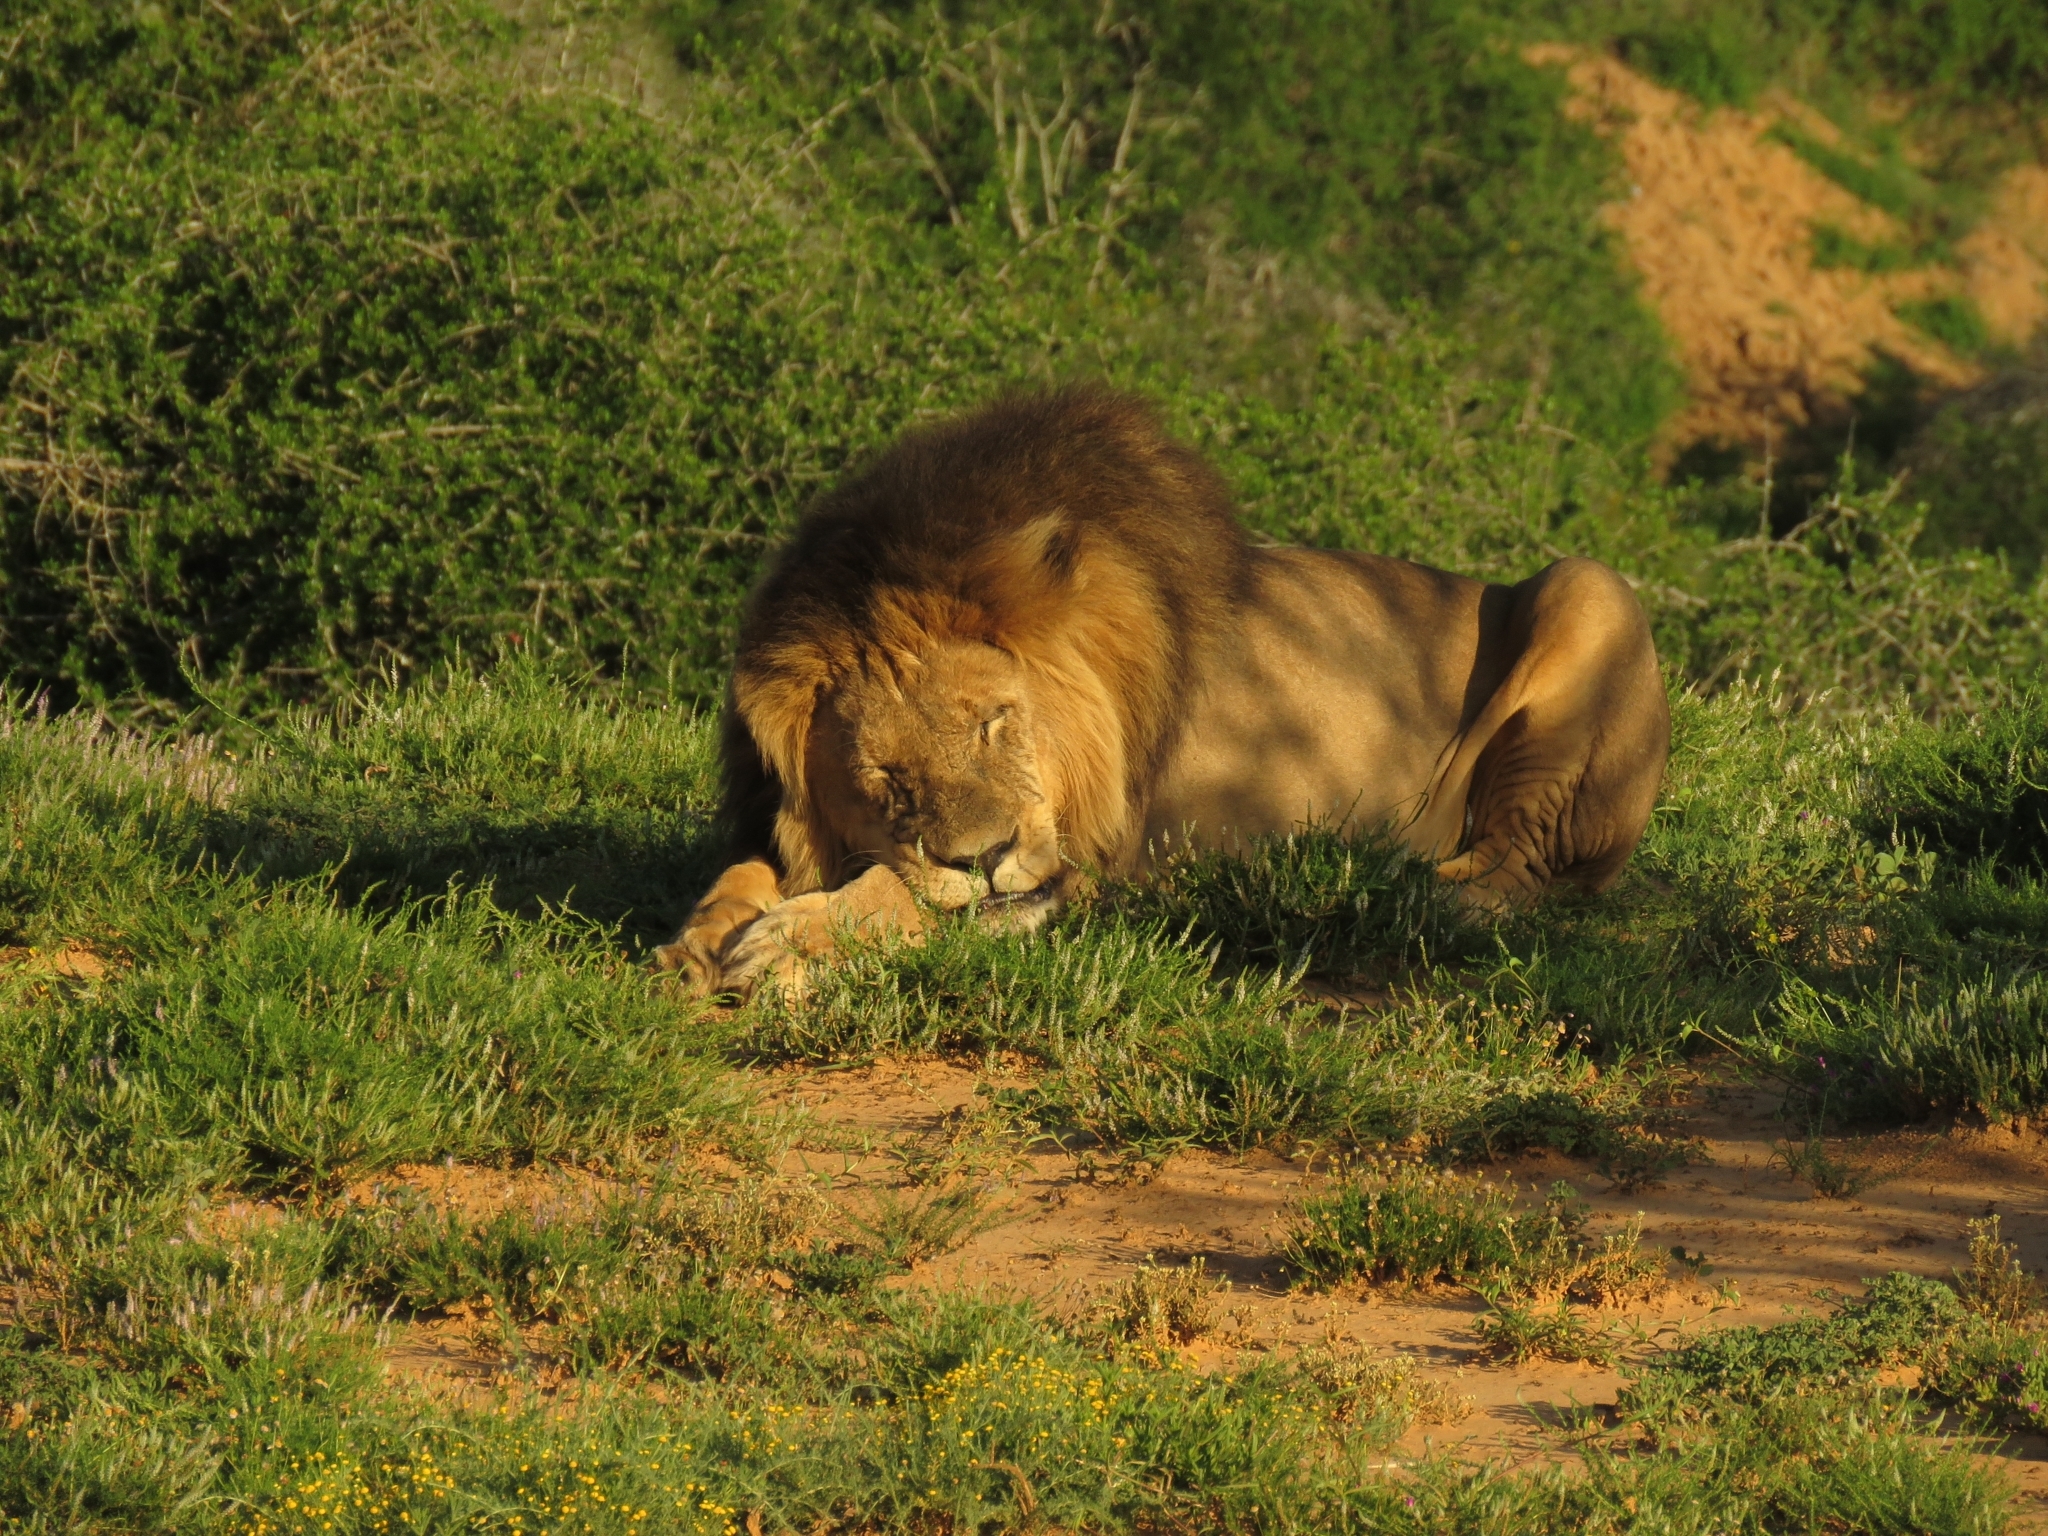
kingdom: Animalia
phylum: Chordata
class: Mammalia
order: Carnivora
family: Felidae
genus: Panthera
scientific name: Panthera leo
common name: Lion
